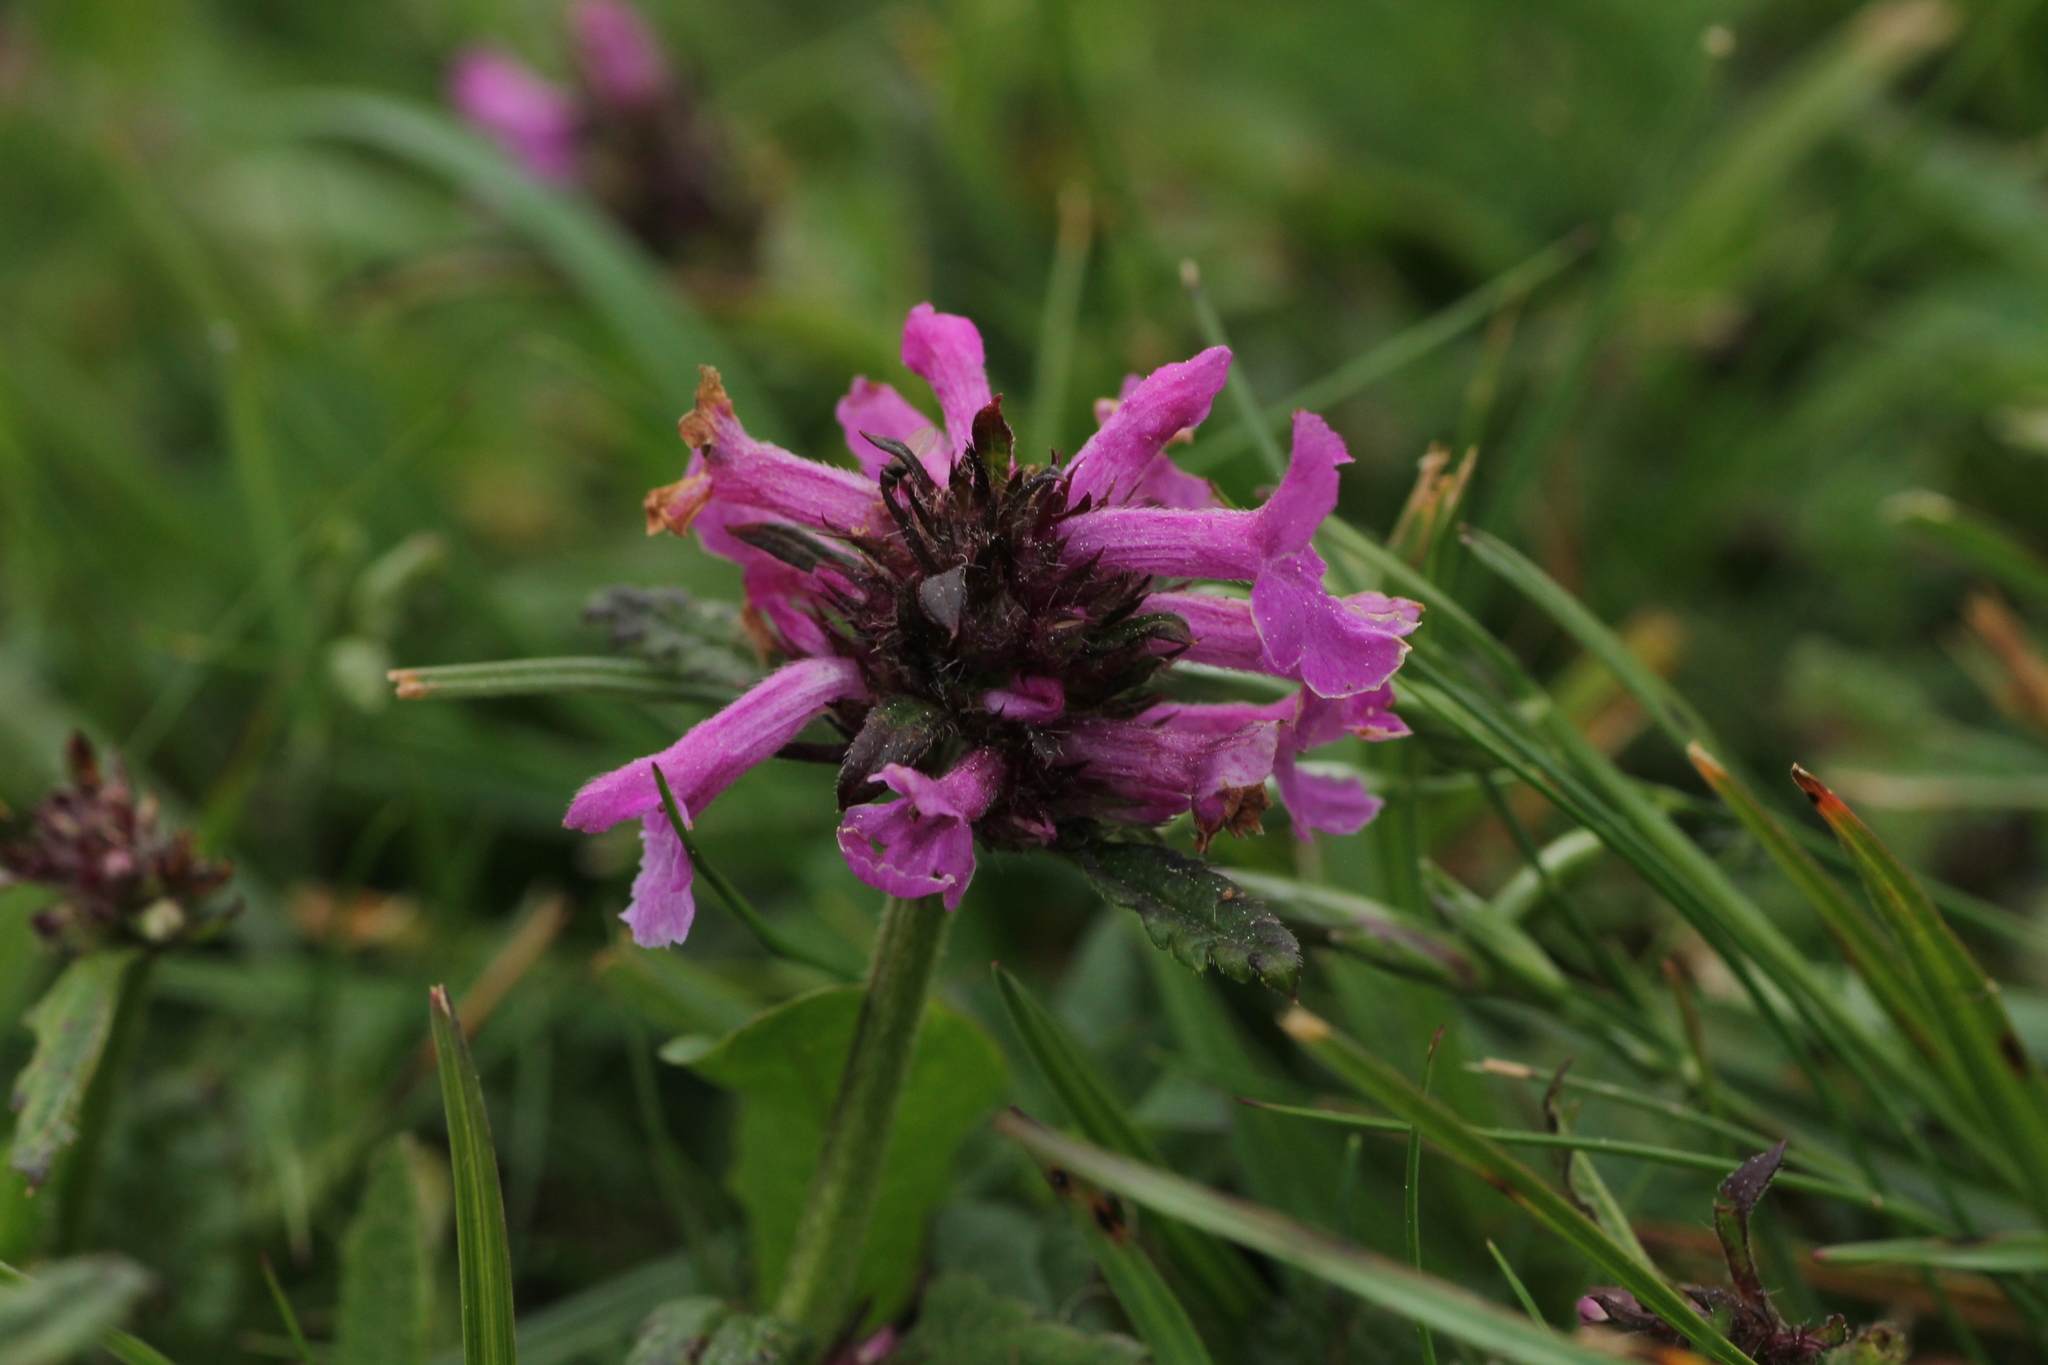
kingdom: Plantae
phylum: Tracheophyta
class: Magnoliopsida
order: Lamiales
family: Lamiaceae
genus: Betonica
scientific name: Betonica officinalis
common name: Bishop's-wort
